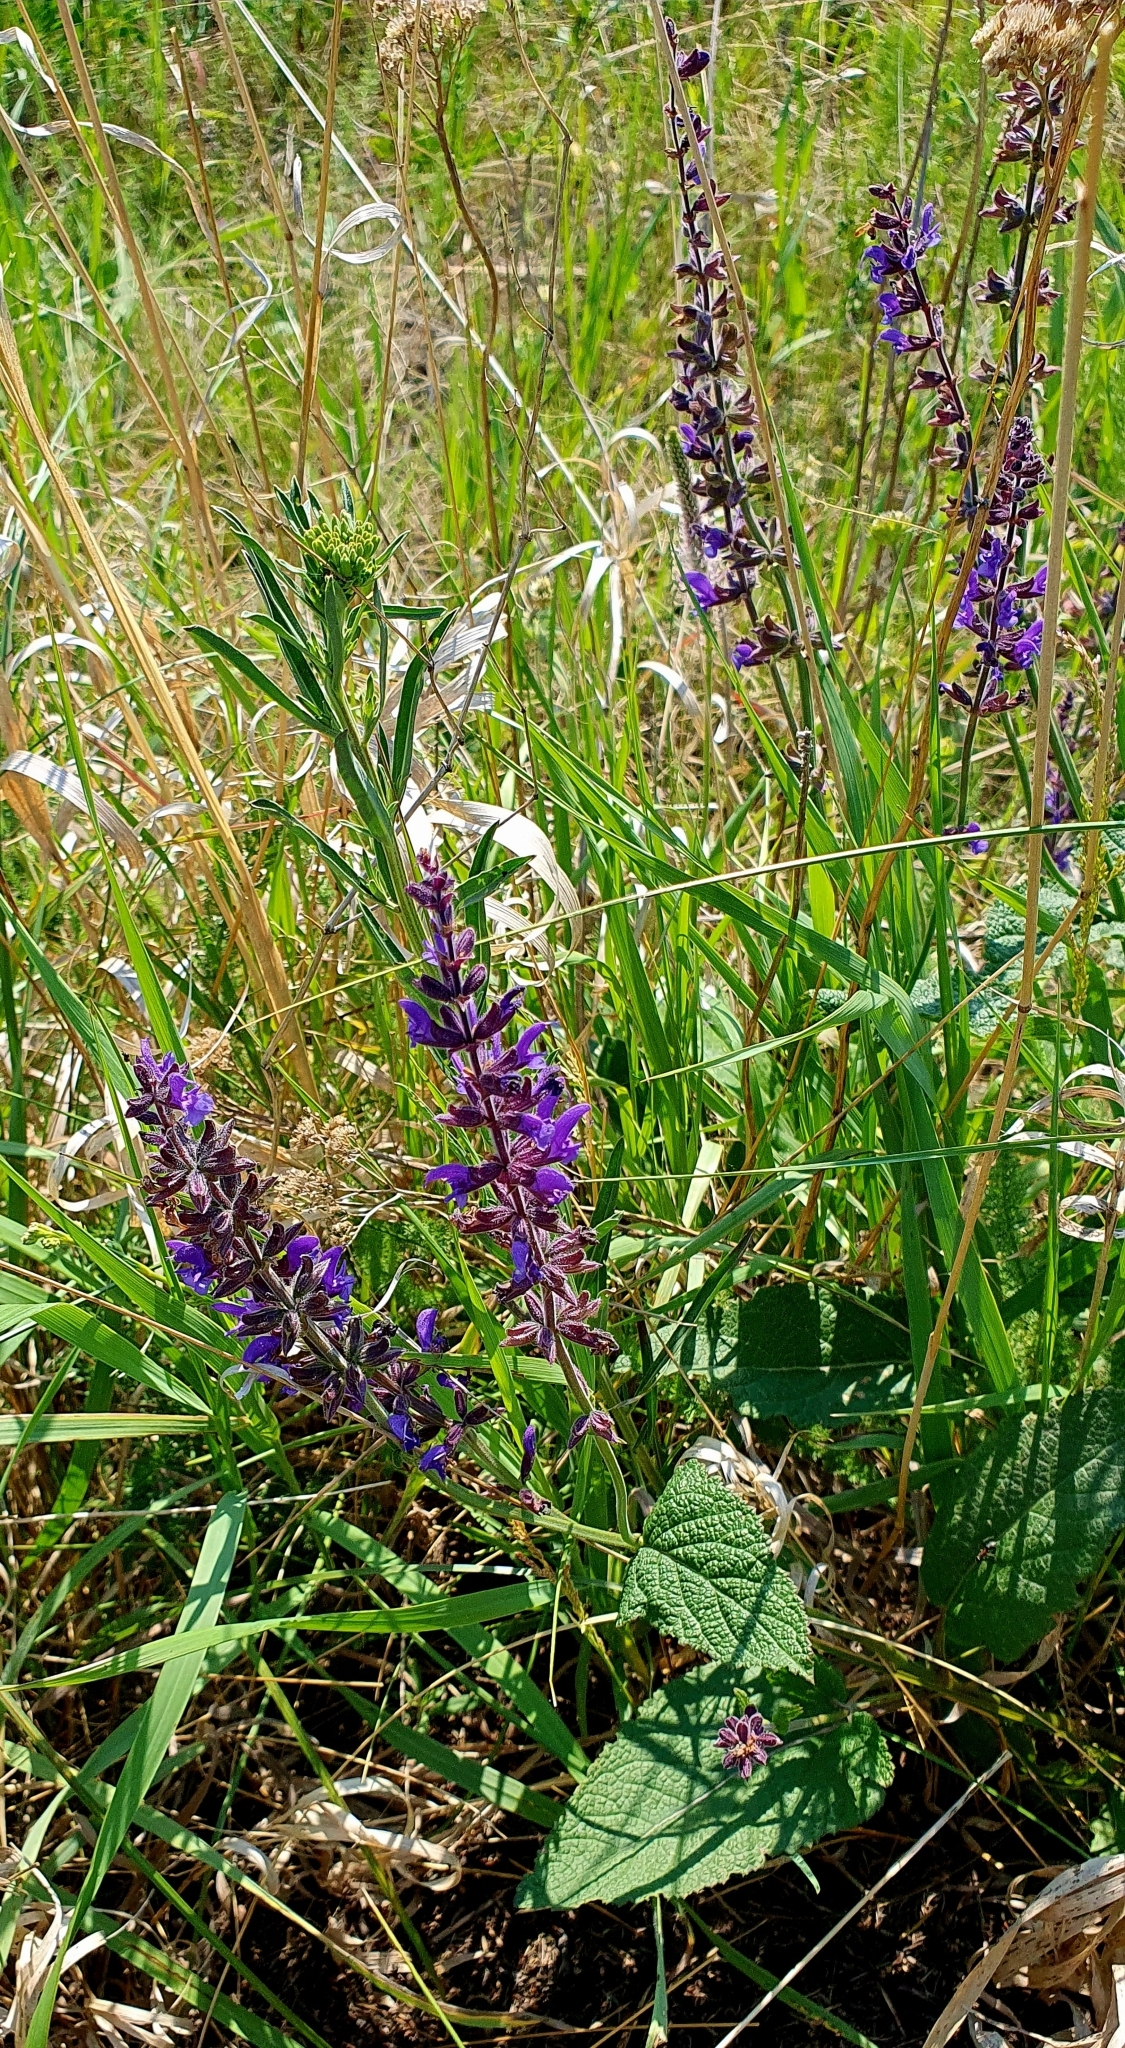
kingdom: Plantae
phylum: Tracheophyta
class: Magnoliopsida
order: Lamiales
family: Lamiaceae
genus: Salvia
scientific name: Salvia dumetorum
